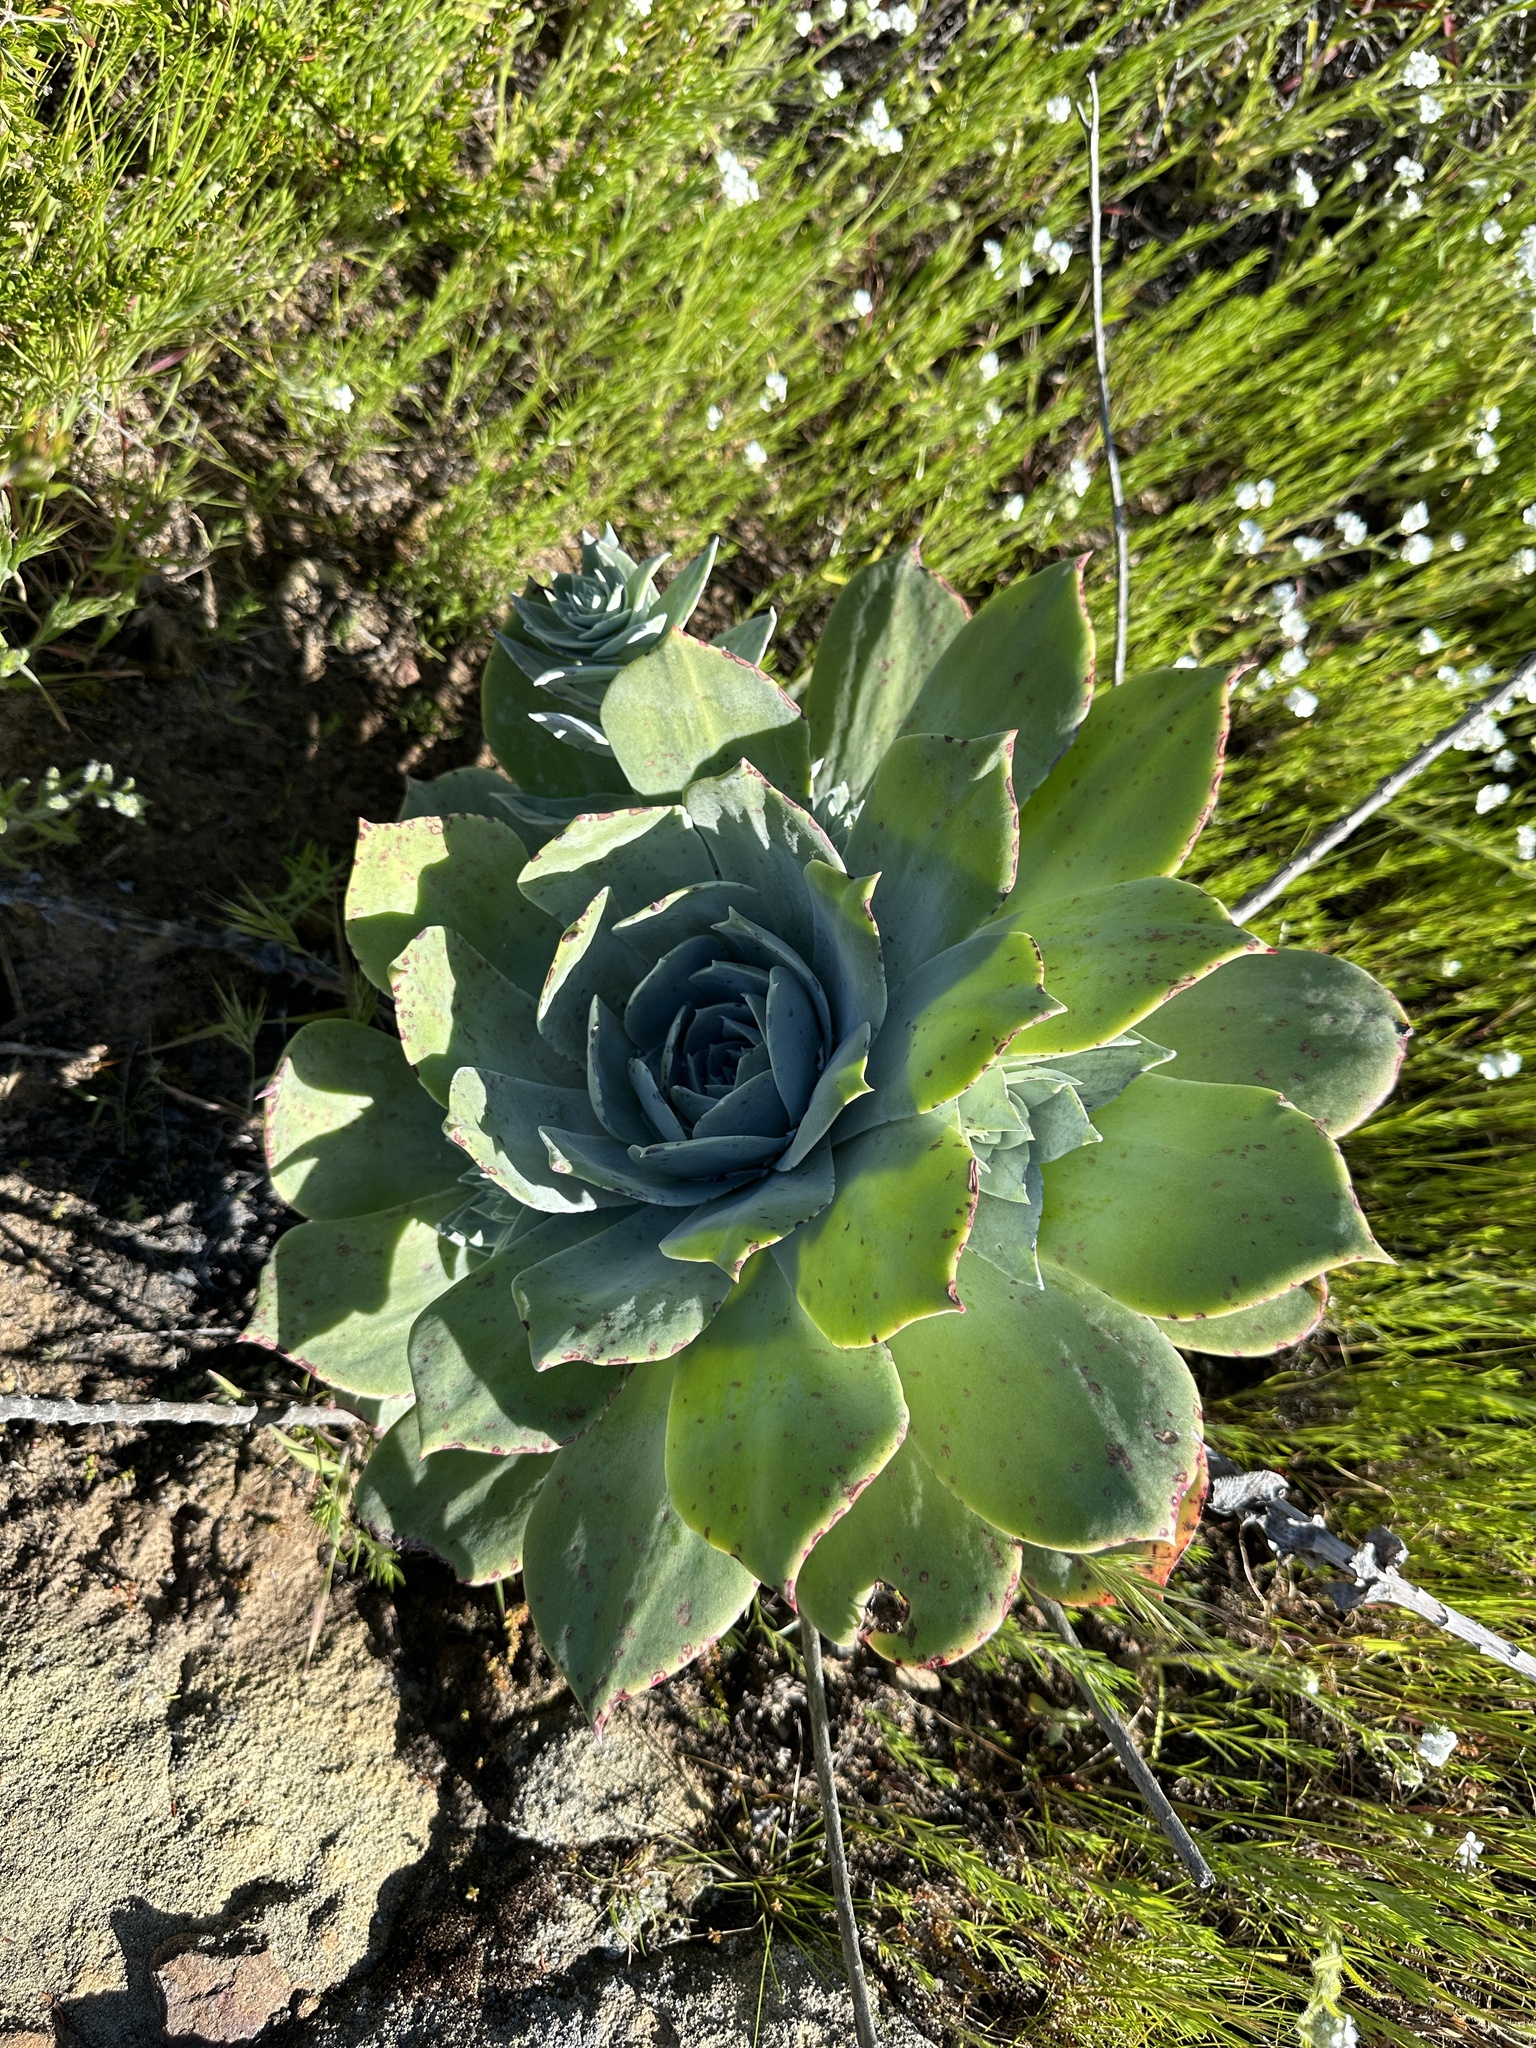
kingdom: Plantae
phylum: Tracheophyta
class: Magnoliopsida
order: Saxifragales
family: Crassulaceae
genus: Dudleya
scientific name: Dudleya pulverulenta
